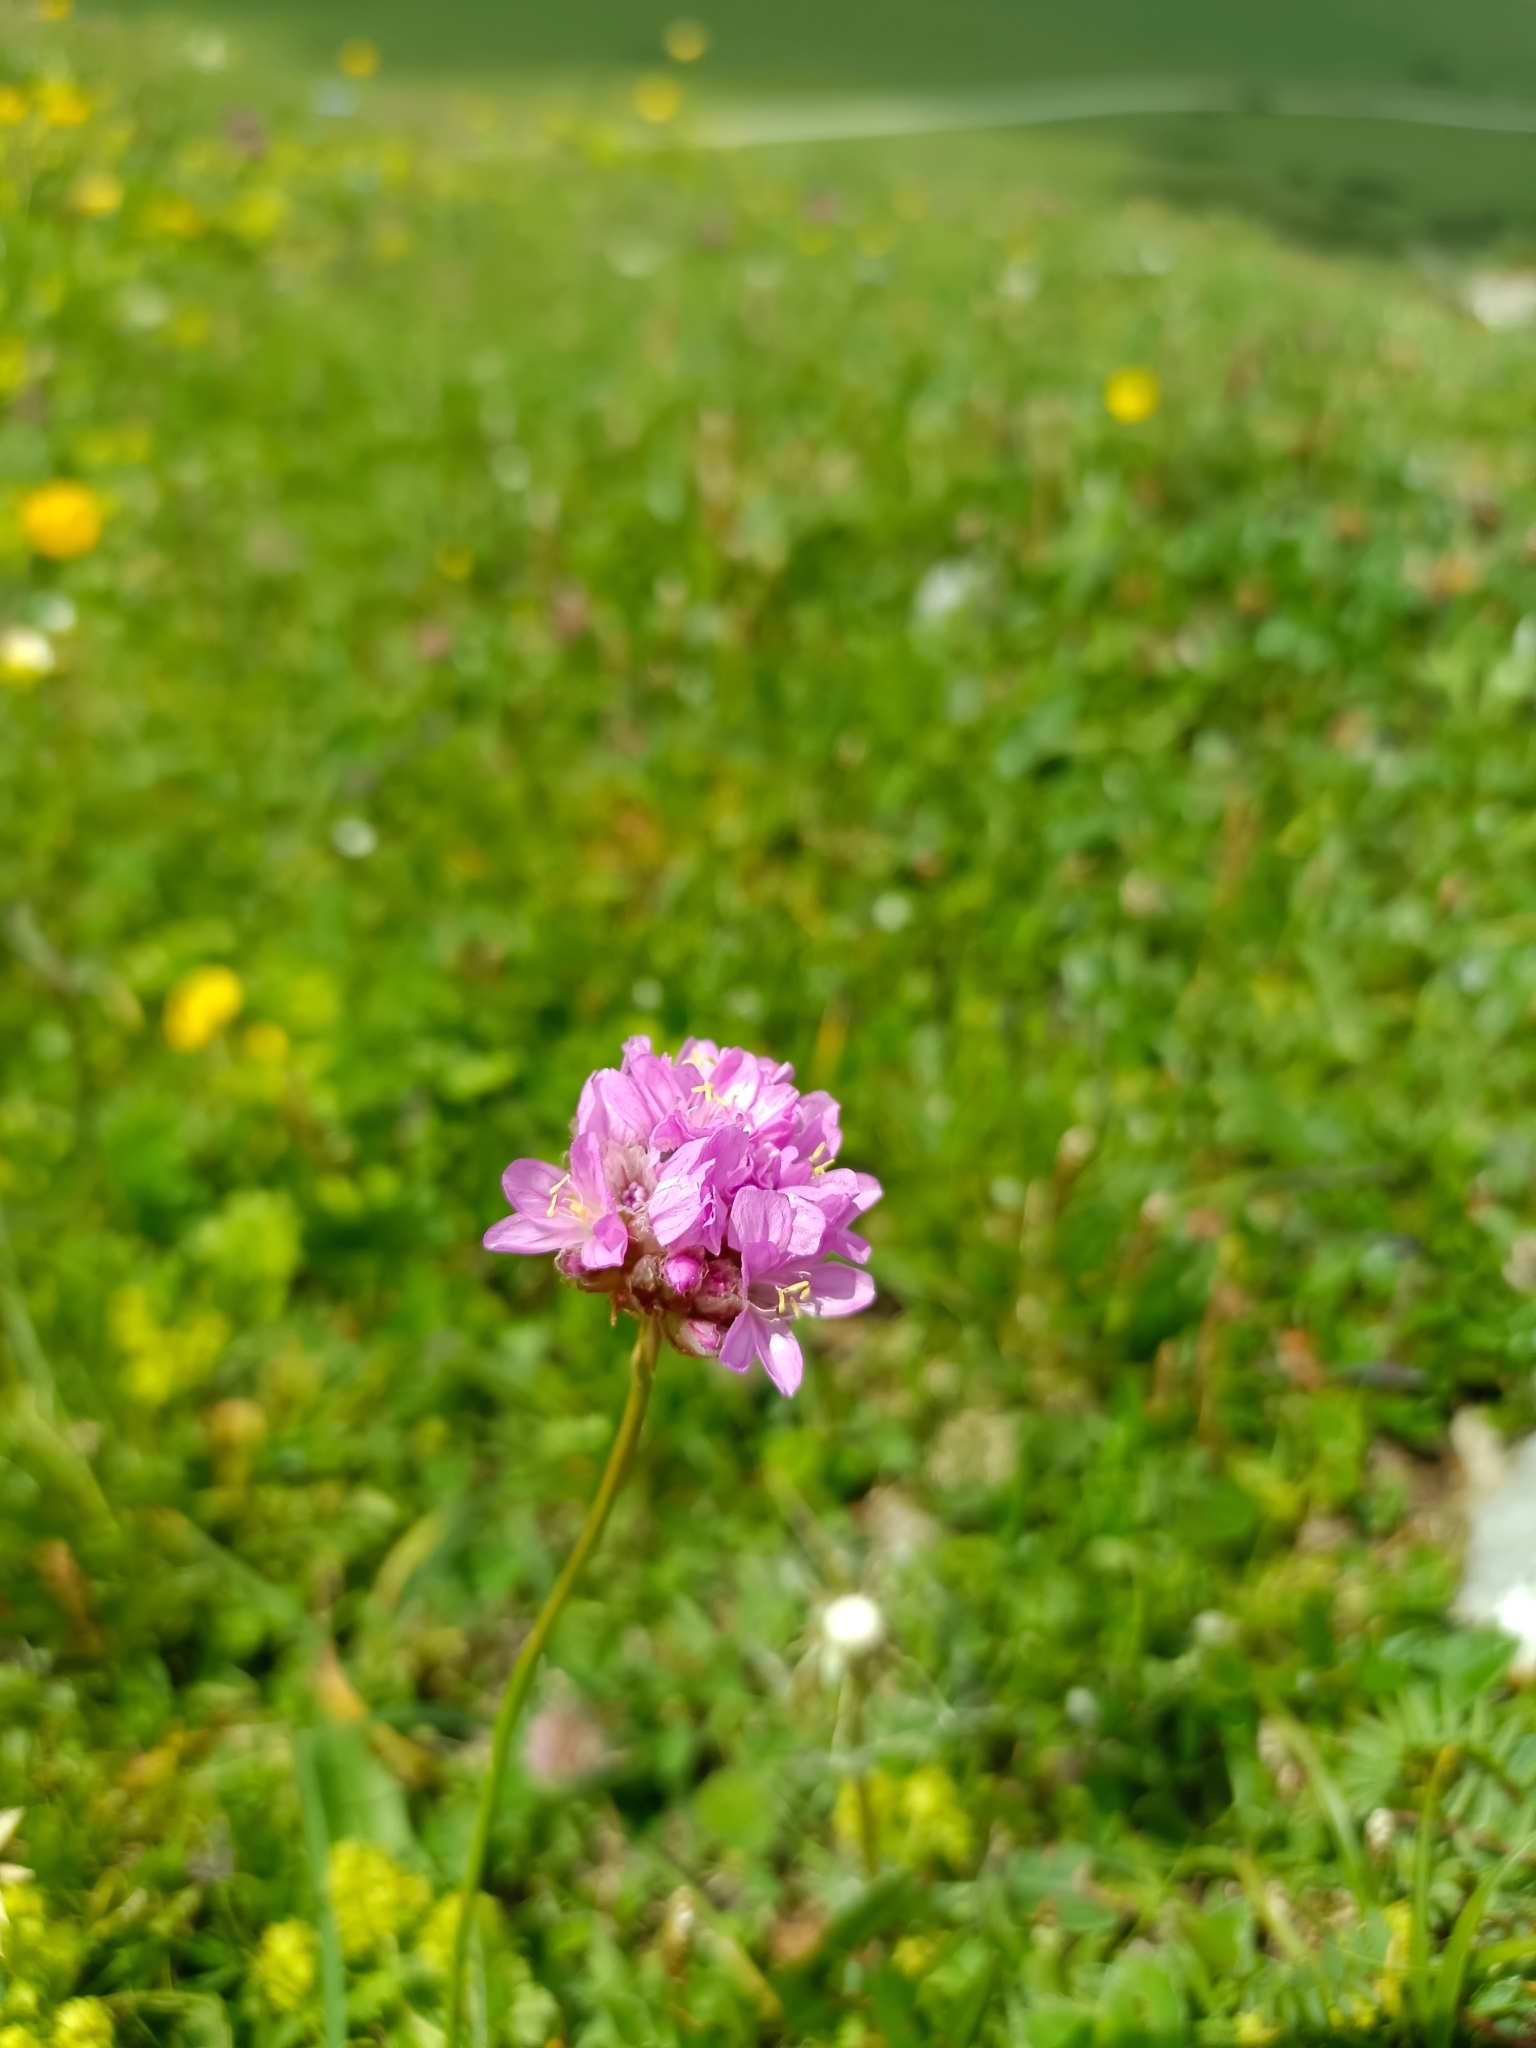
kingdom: Plantae
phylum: Tracheophyta
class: Magnoliopsida
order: Caryophyllales
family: Plumbaginaceae
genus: Armeria
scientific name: Armeria alpina
